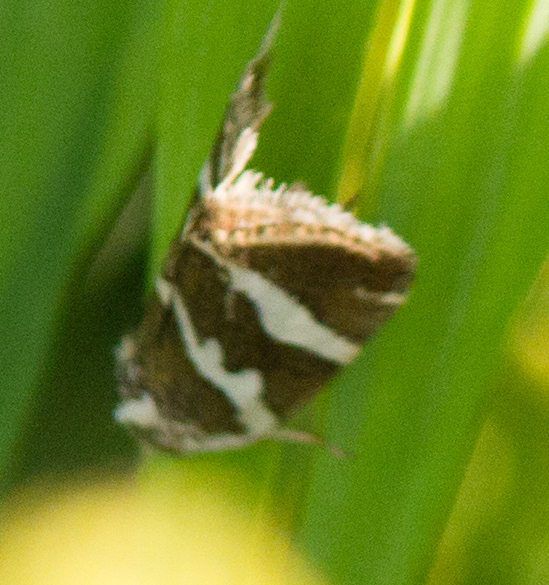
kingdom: Animalia
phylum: Arthropoda
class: Insecta
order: Lepidoptera
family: Noctuidae
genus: Deltote
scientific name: Deltote bankiana
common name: Silver barred
